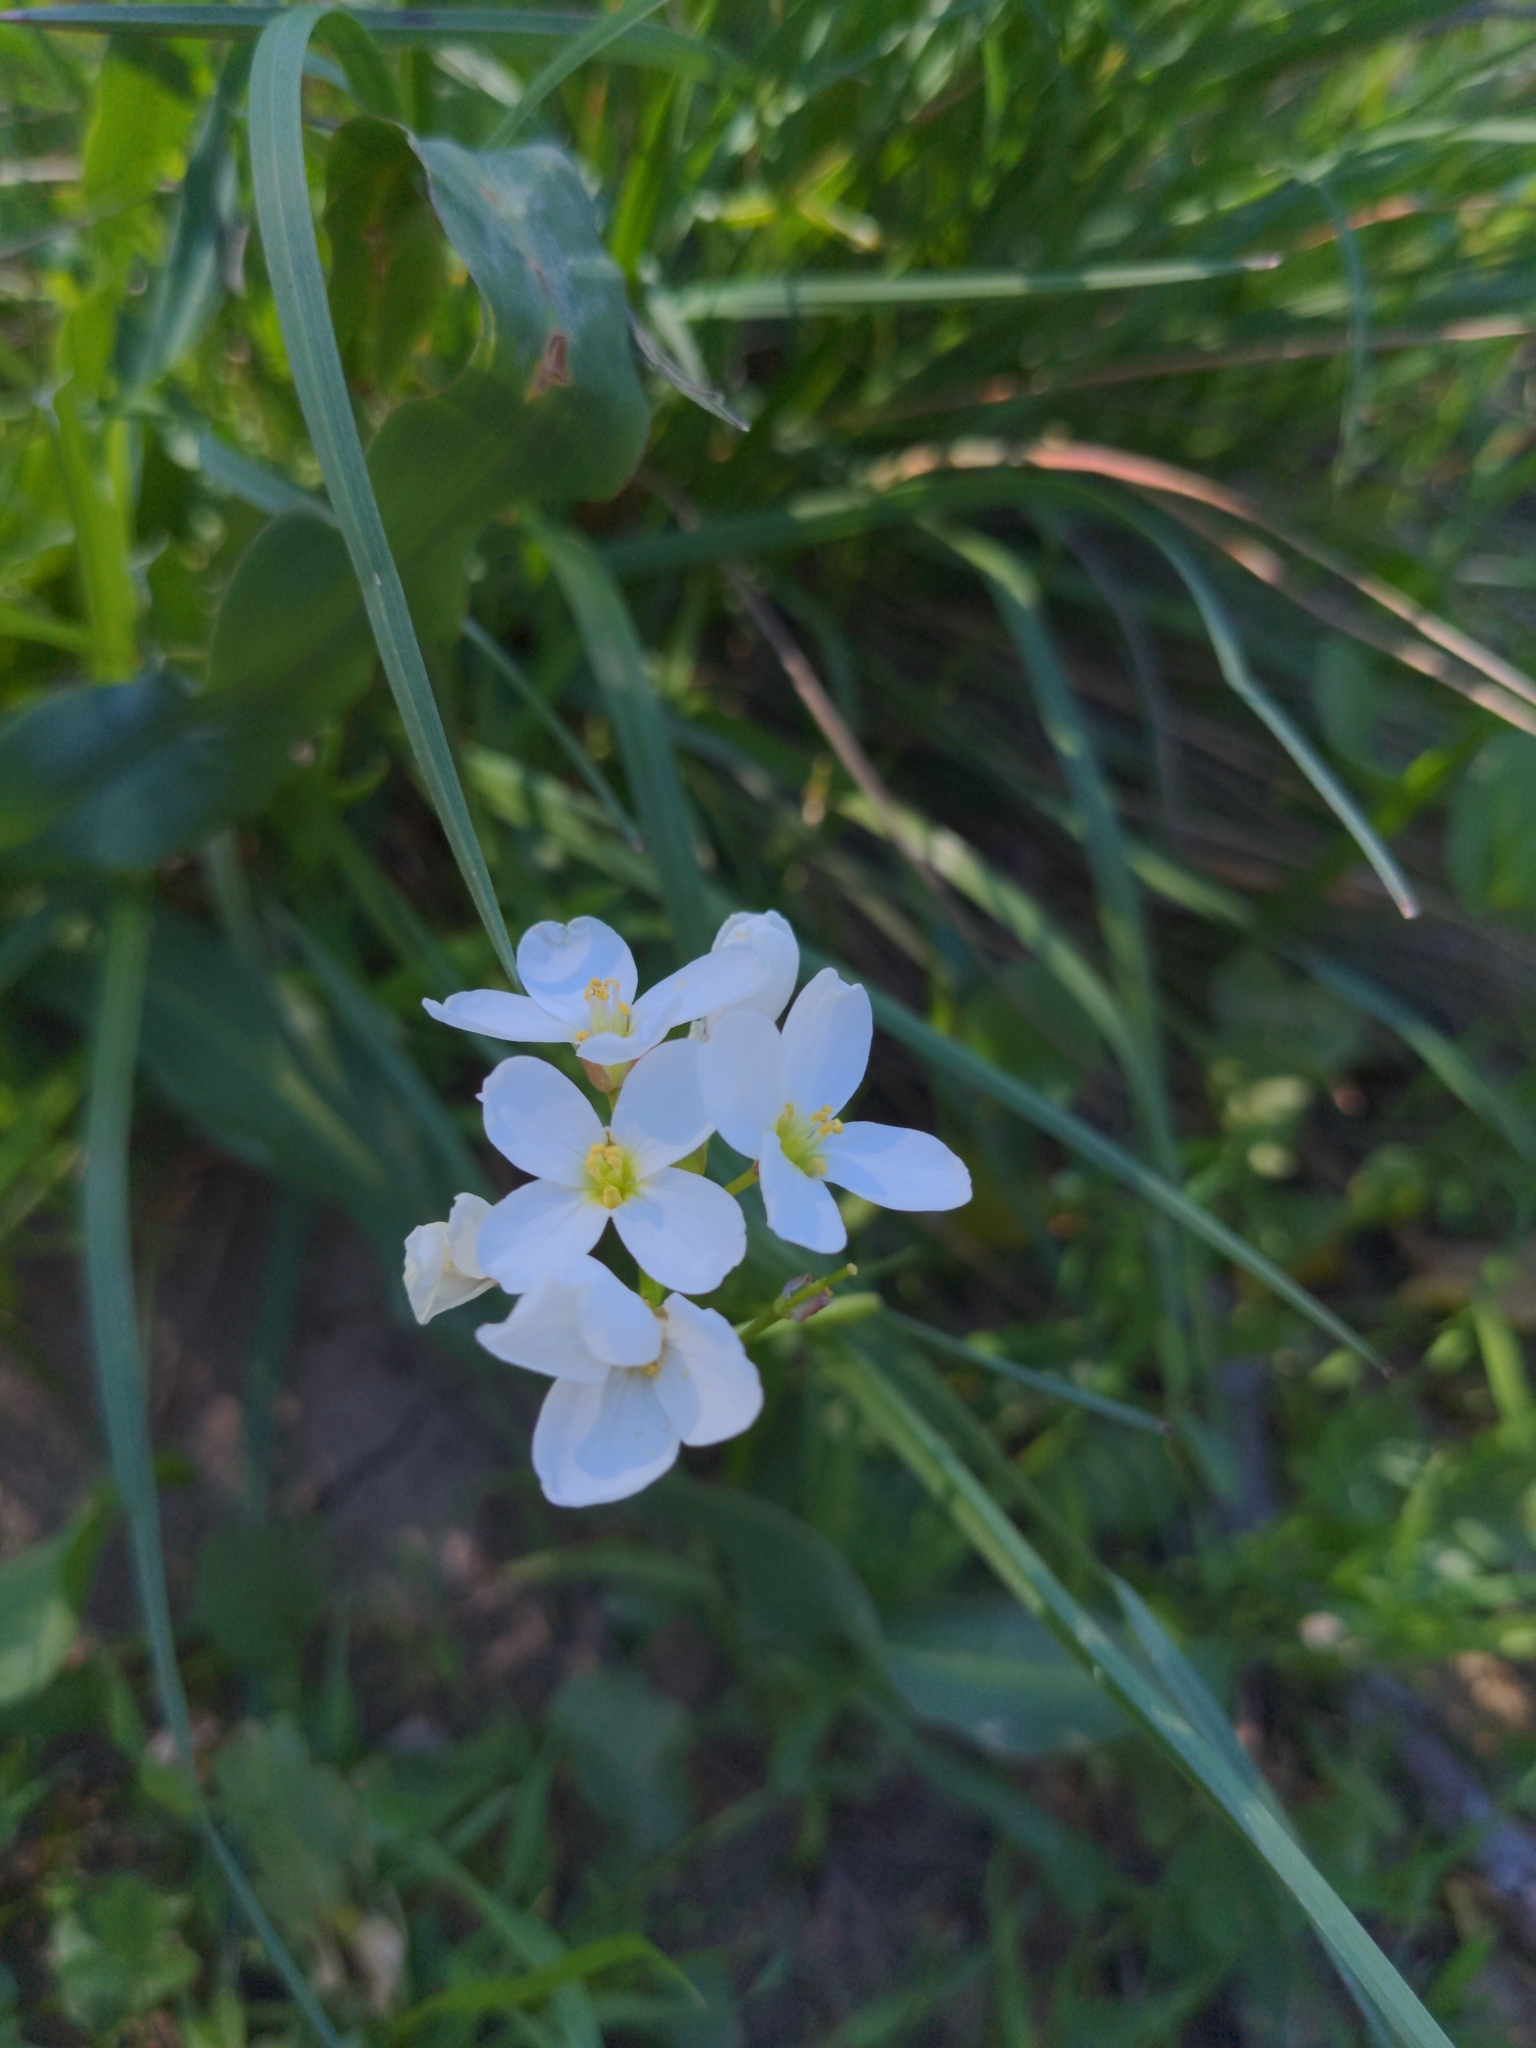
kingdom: Plantae
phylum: Tracheophyta
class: Magnoliopsida
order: Brassicales
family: Brassicaceae
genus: Cardamine
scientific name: Cardamine californica
